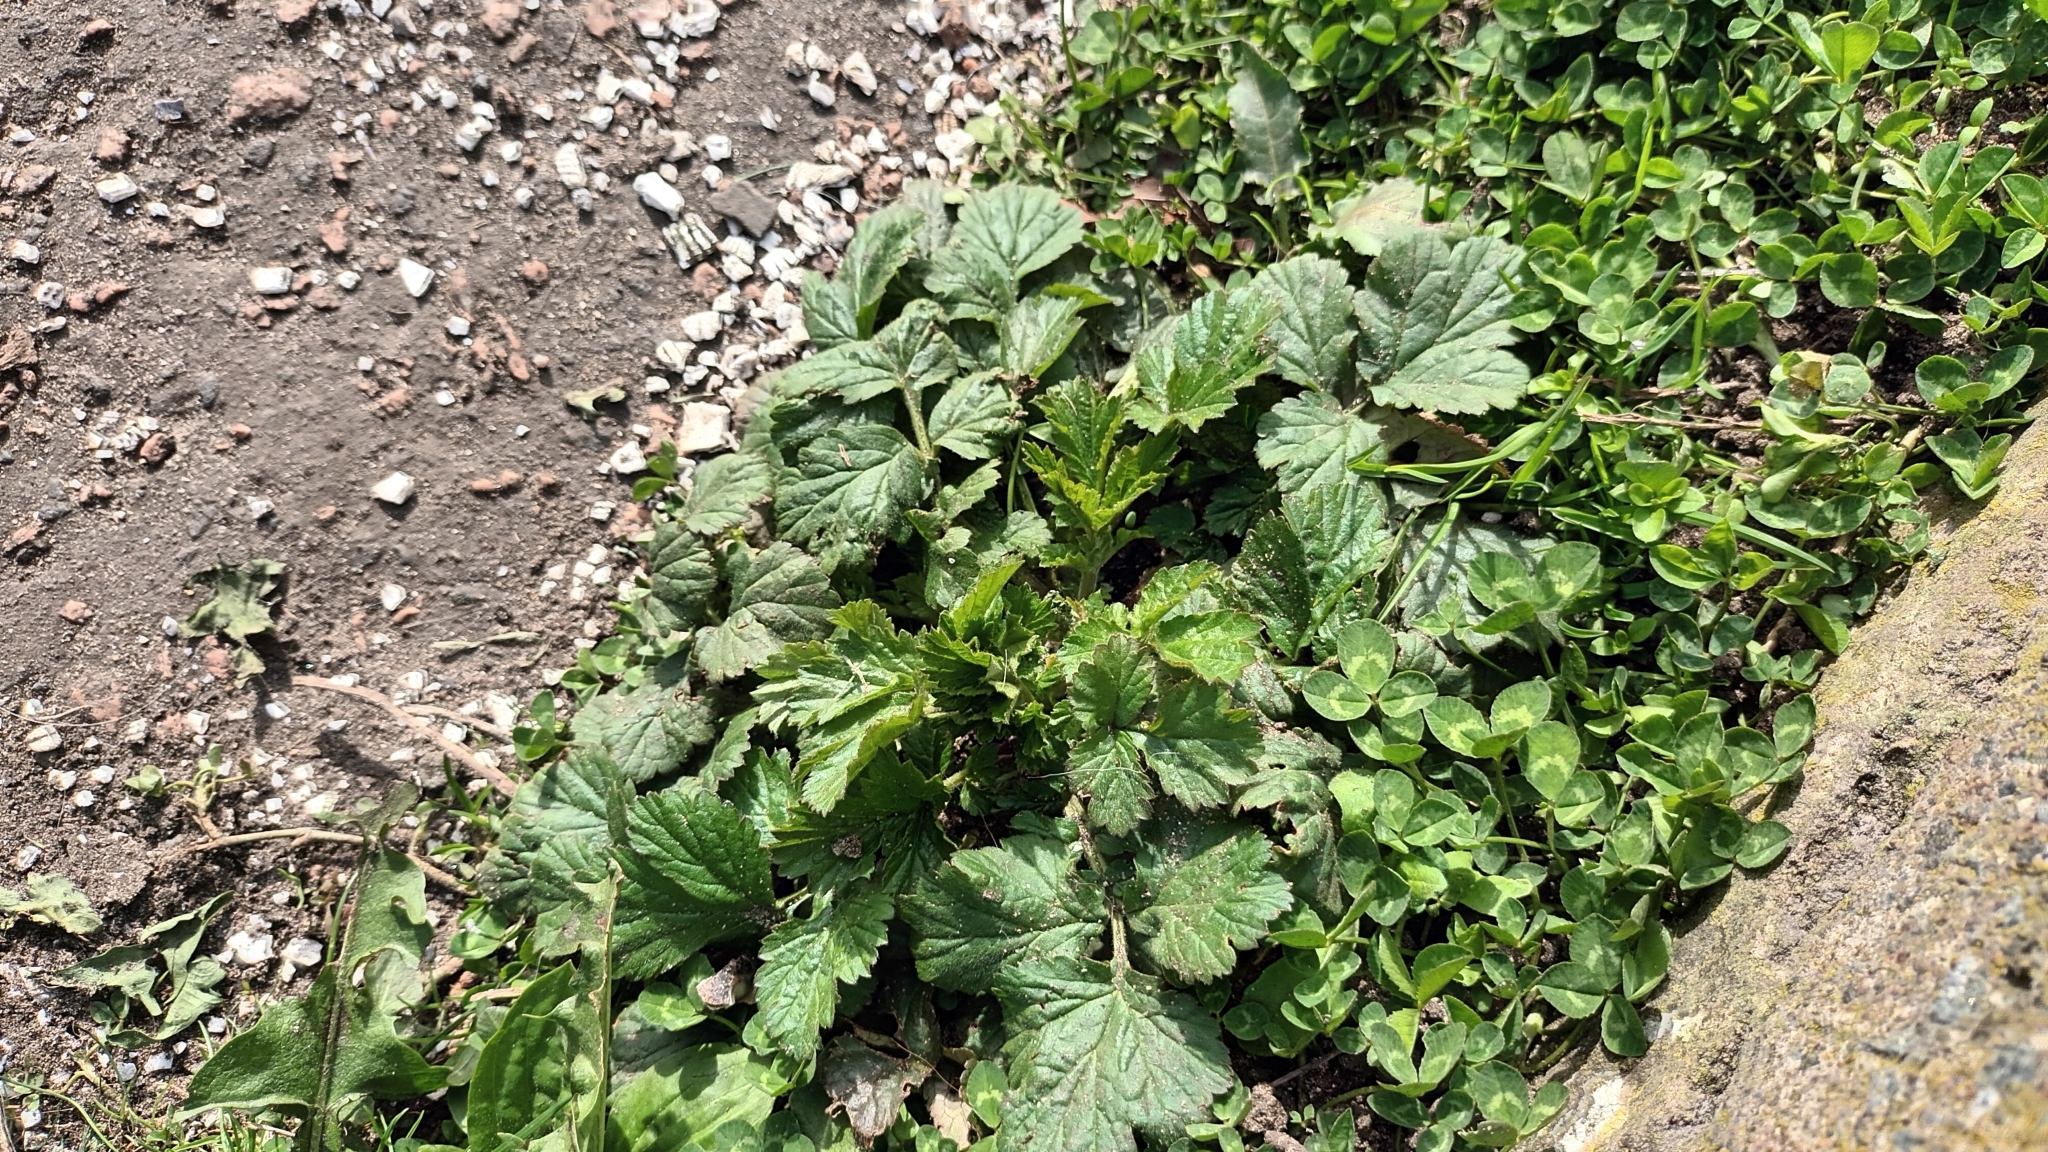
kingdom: Plantae
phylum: Tracheophyta
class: Magnoliopsida
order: Rosales
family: Rosaceae
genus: Geum
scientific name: Geum urbanum
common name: Wood avens
